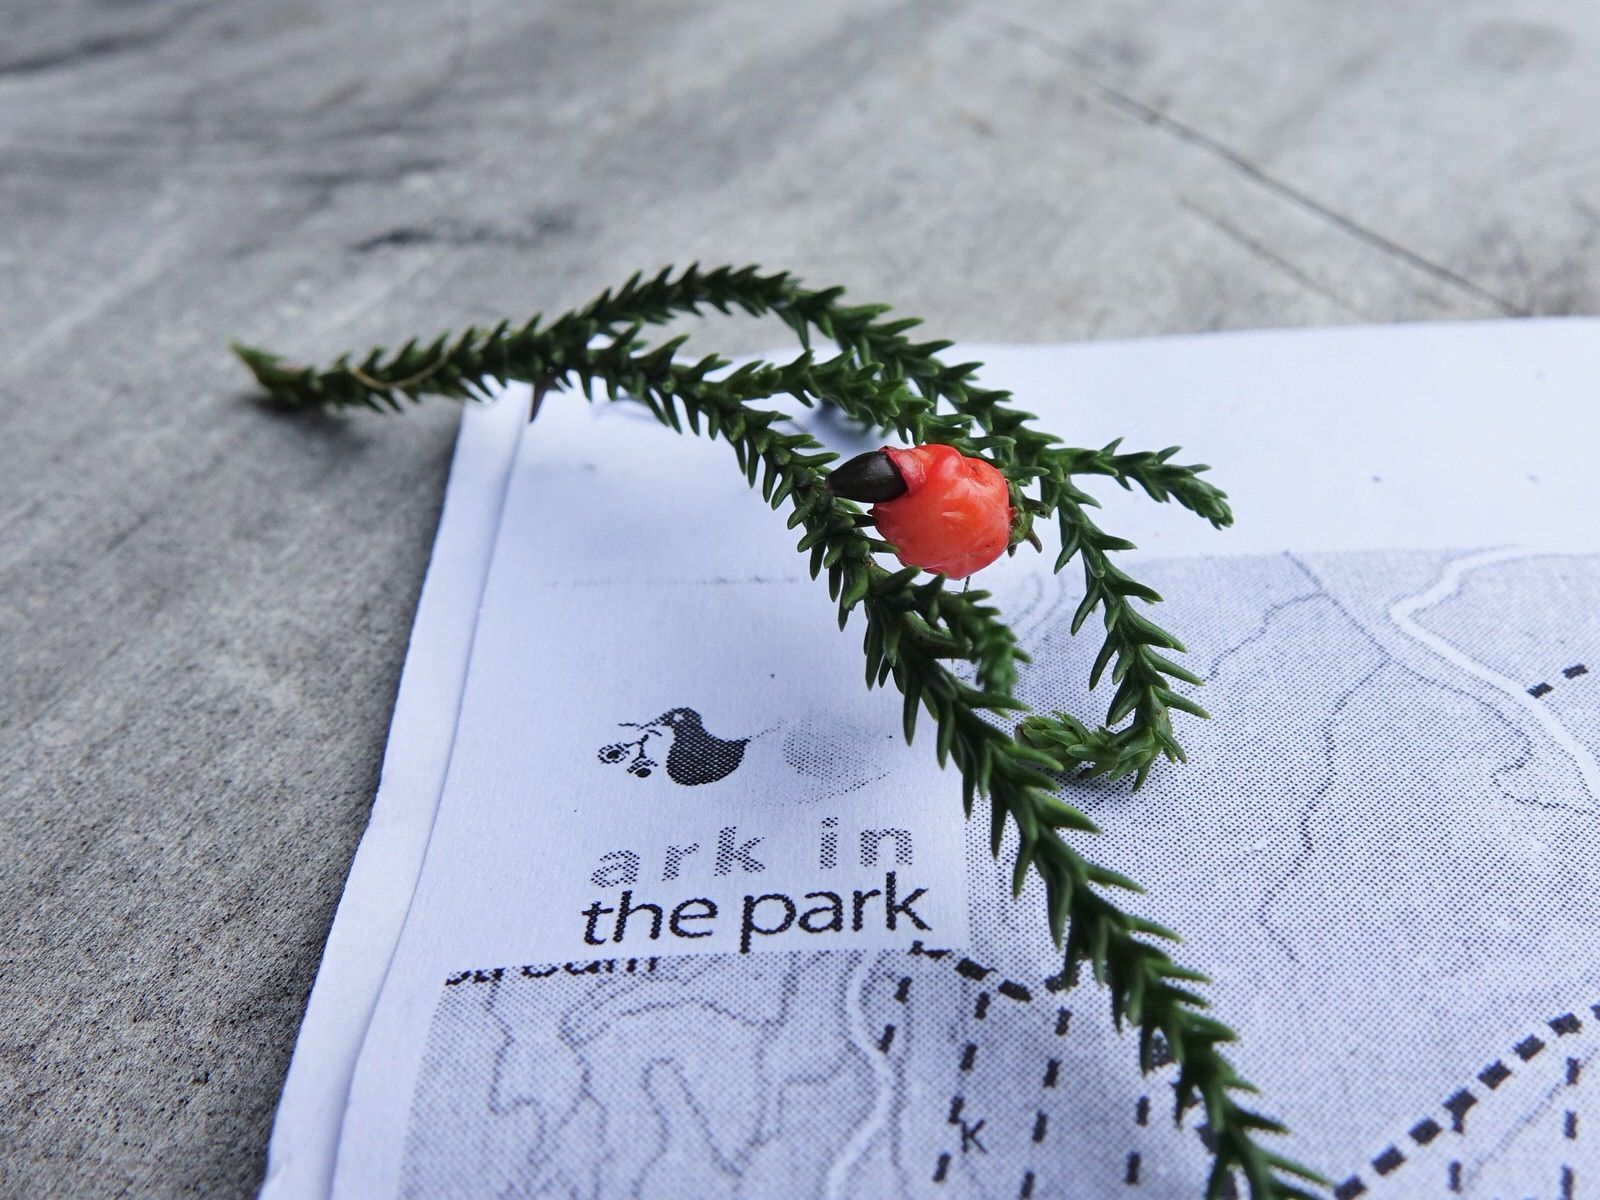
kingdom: Plantae
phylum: Tracheophyta
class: Pinopsida
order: Pinales
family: Podocarpaceae
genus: Dacrydium
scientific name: Dacrydium cupressinum
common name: Red pine
